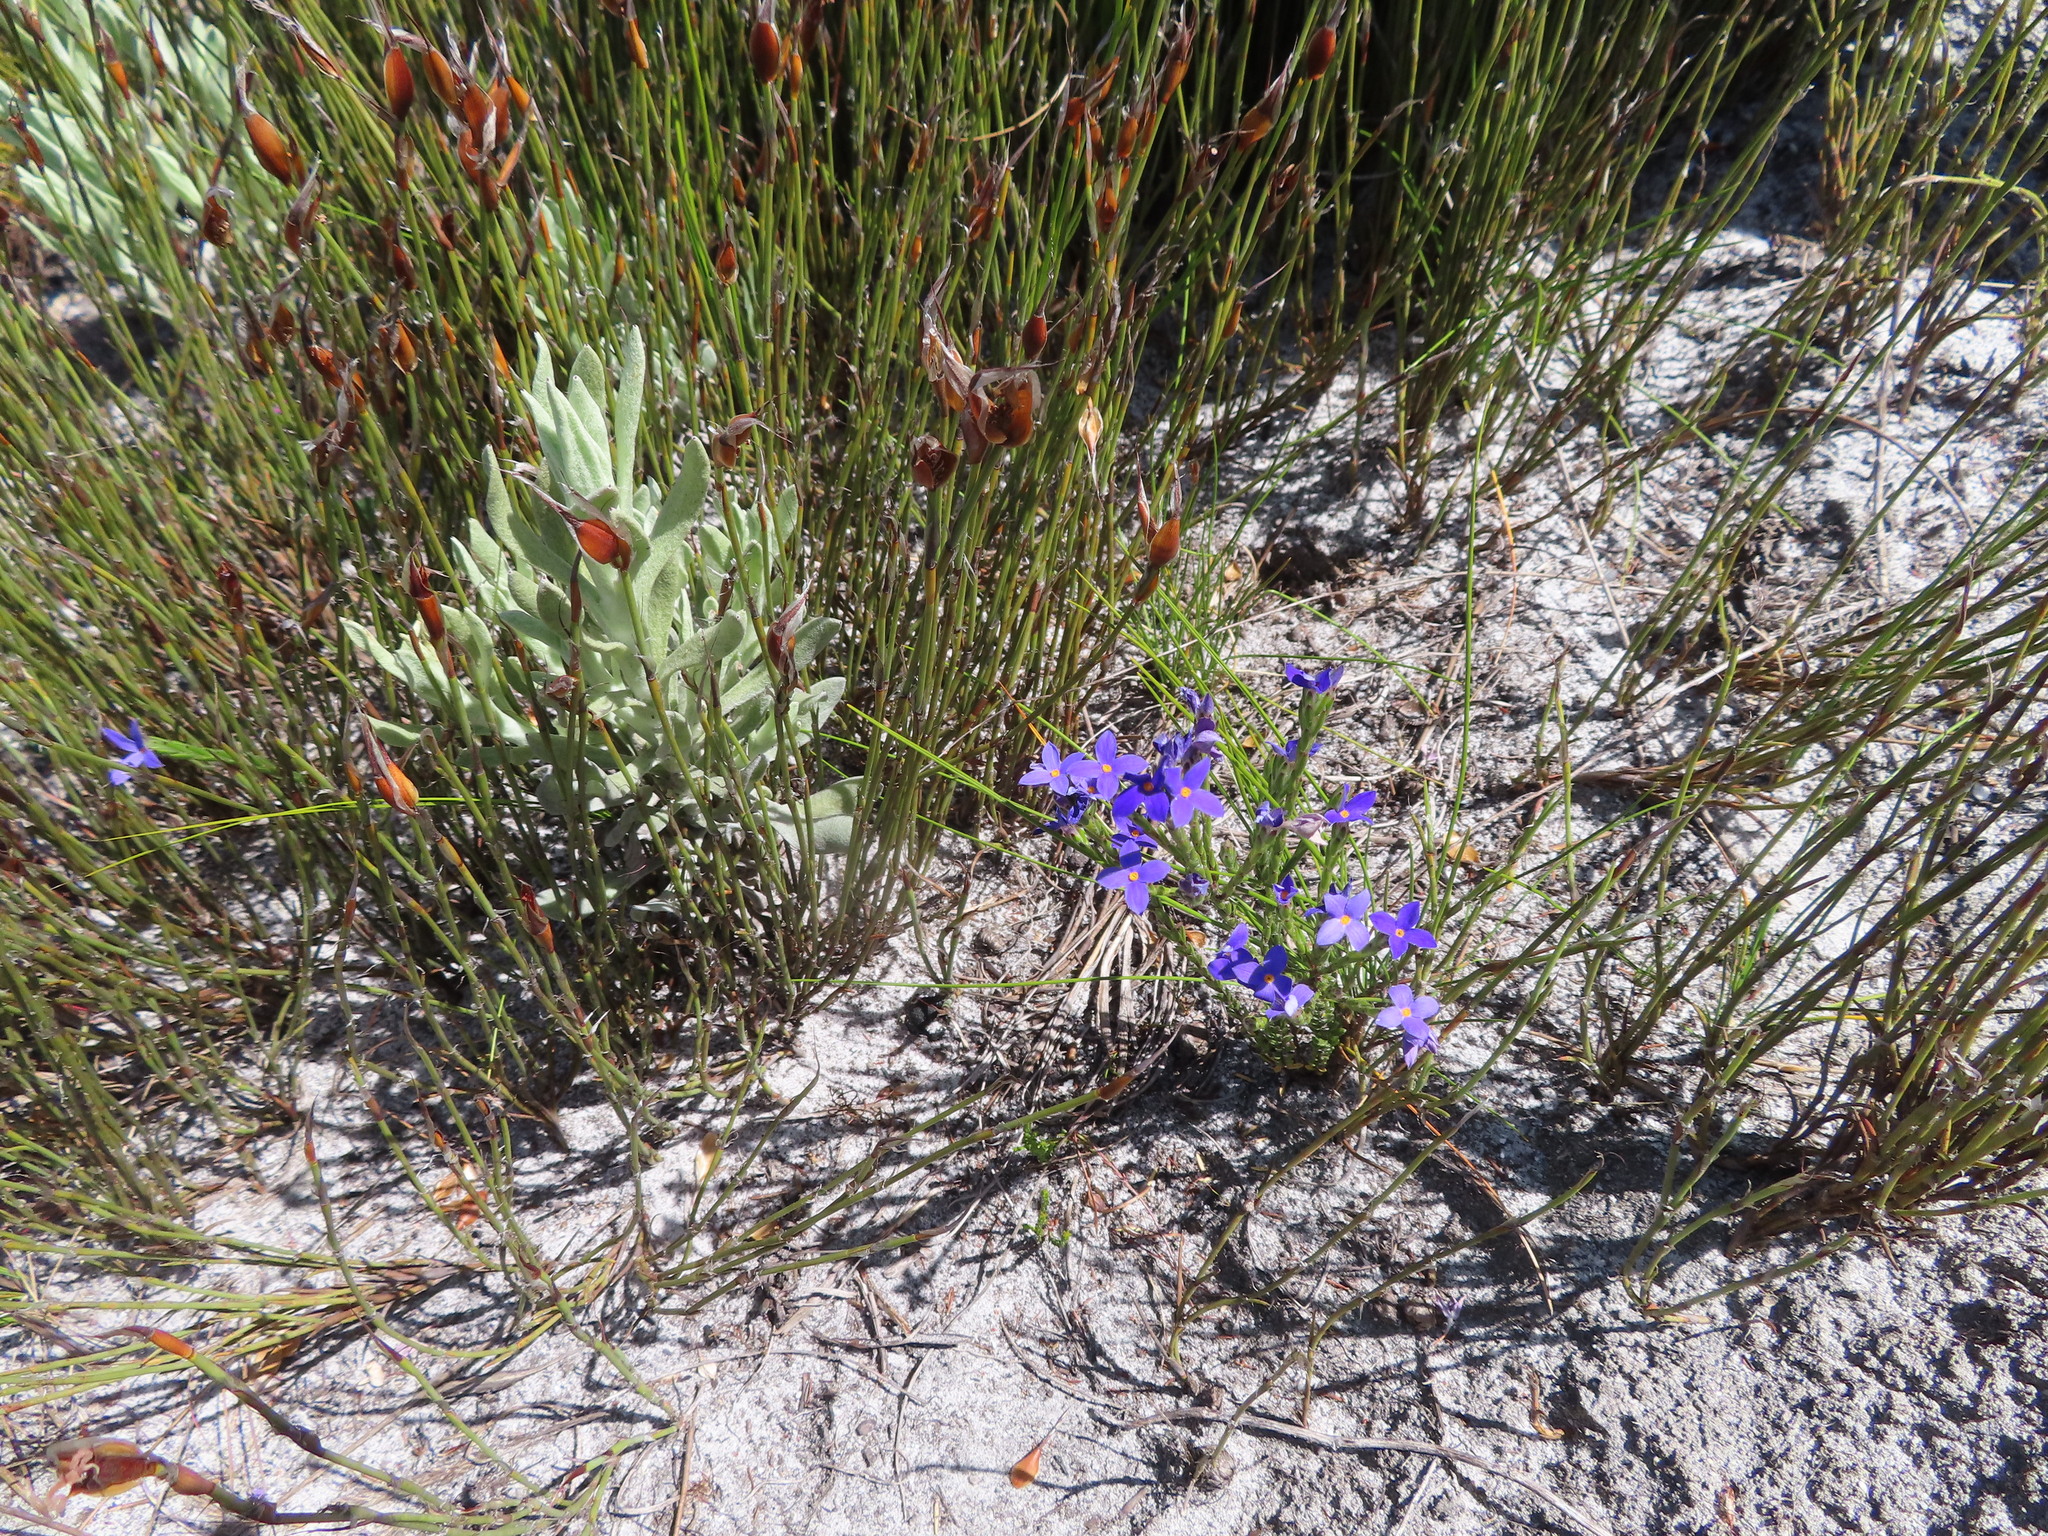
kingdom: Plantae
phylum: Tracheophyta
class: Magnoliopsida
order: Malvales
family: Thymelaeaceae
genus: Gnidia
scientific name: Gnidia penicillata
